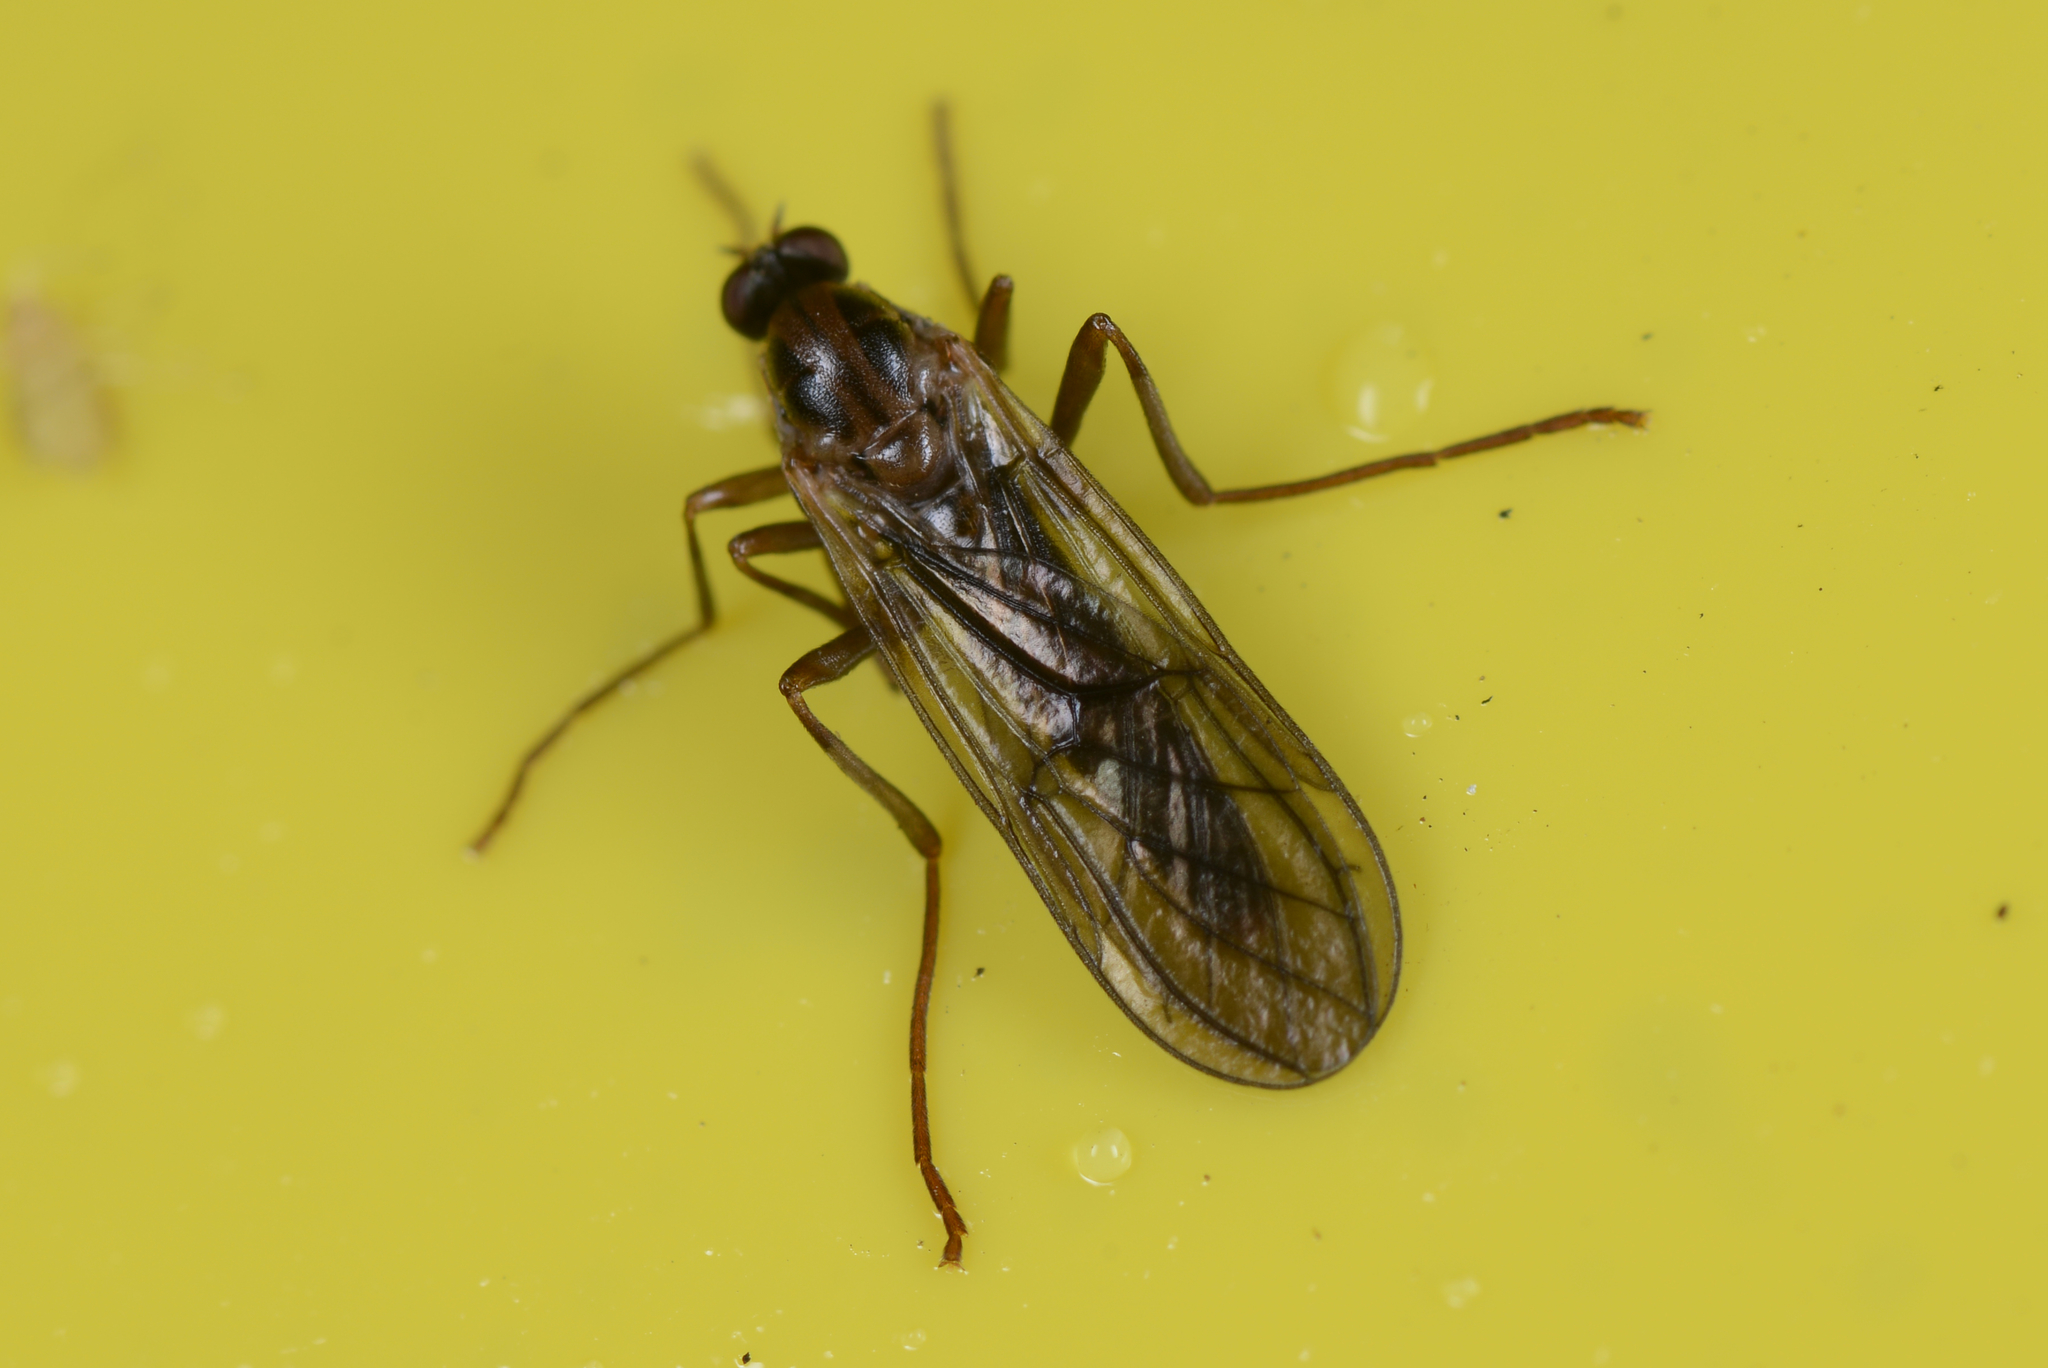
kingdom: Animalia
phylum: Arthropoda
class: Insecta
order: Diptera
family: Stratiomyidae
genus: Boreoides
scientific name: Boreoides tasmaniensis
